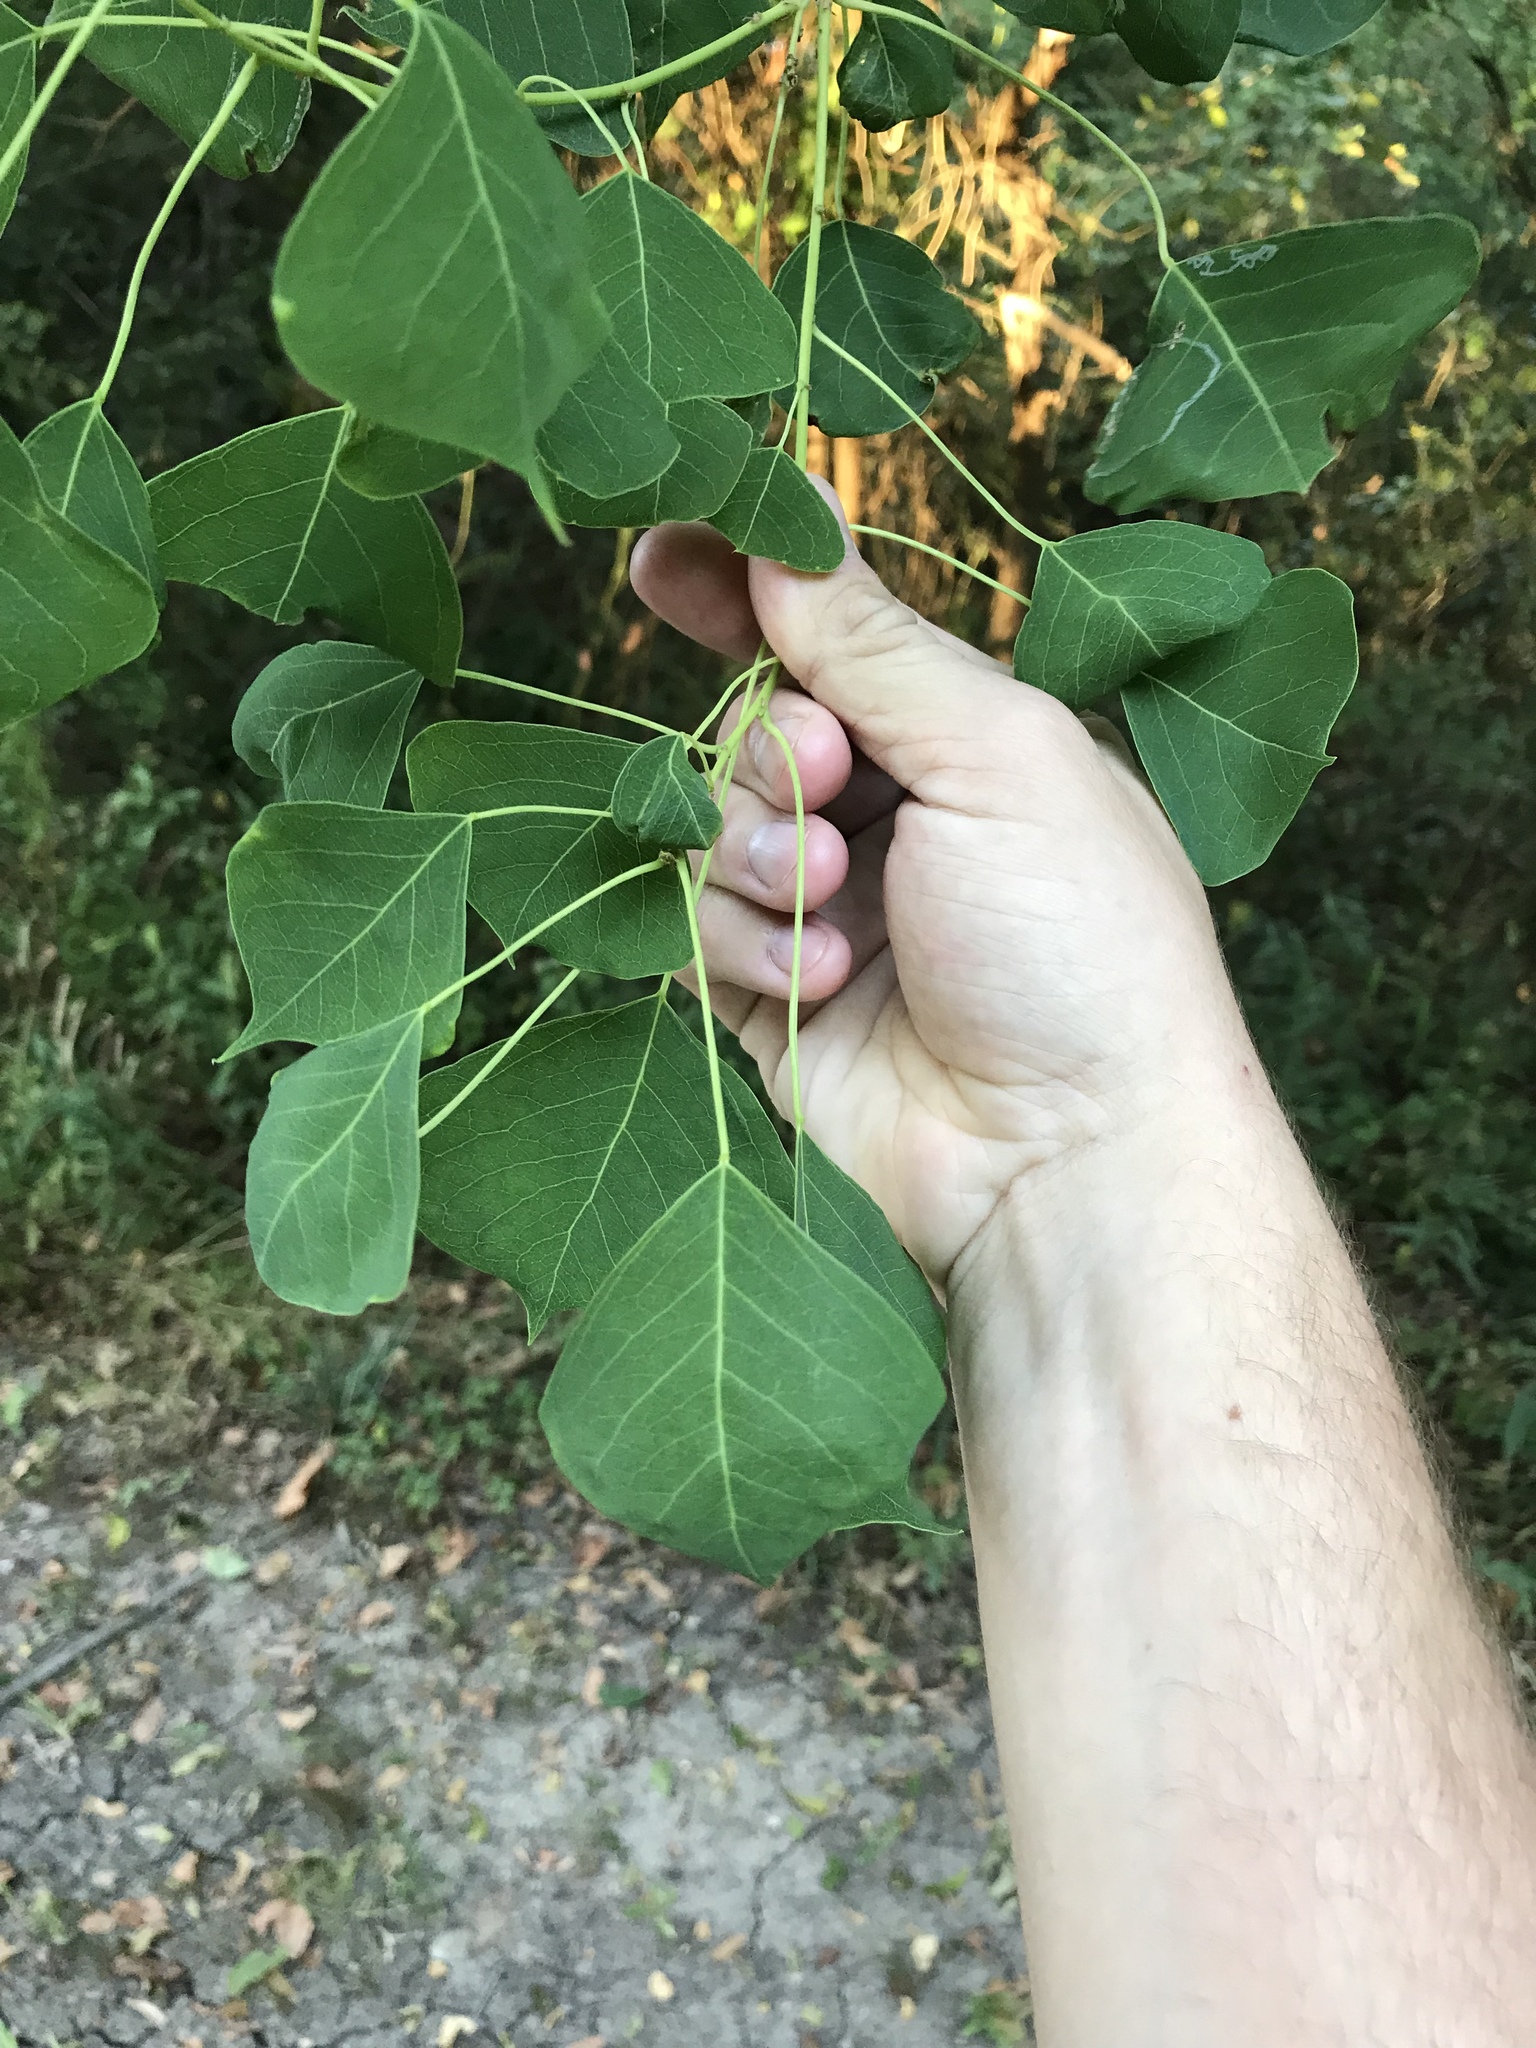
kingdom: Plantae
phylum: Tracheophyta
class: Magnoliopsida
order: Malpighiales
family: Euphorbiaceae
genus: Triadica
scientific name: Triadica sebifera
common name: Chinese tallow
